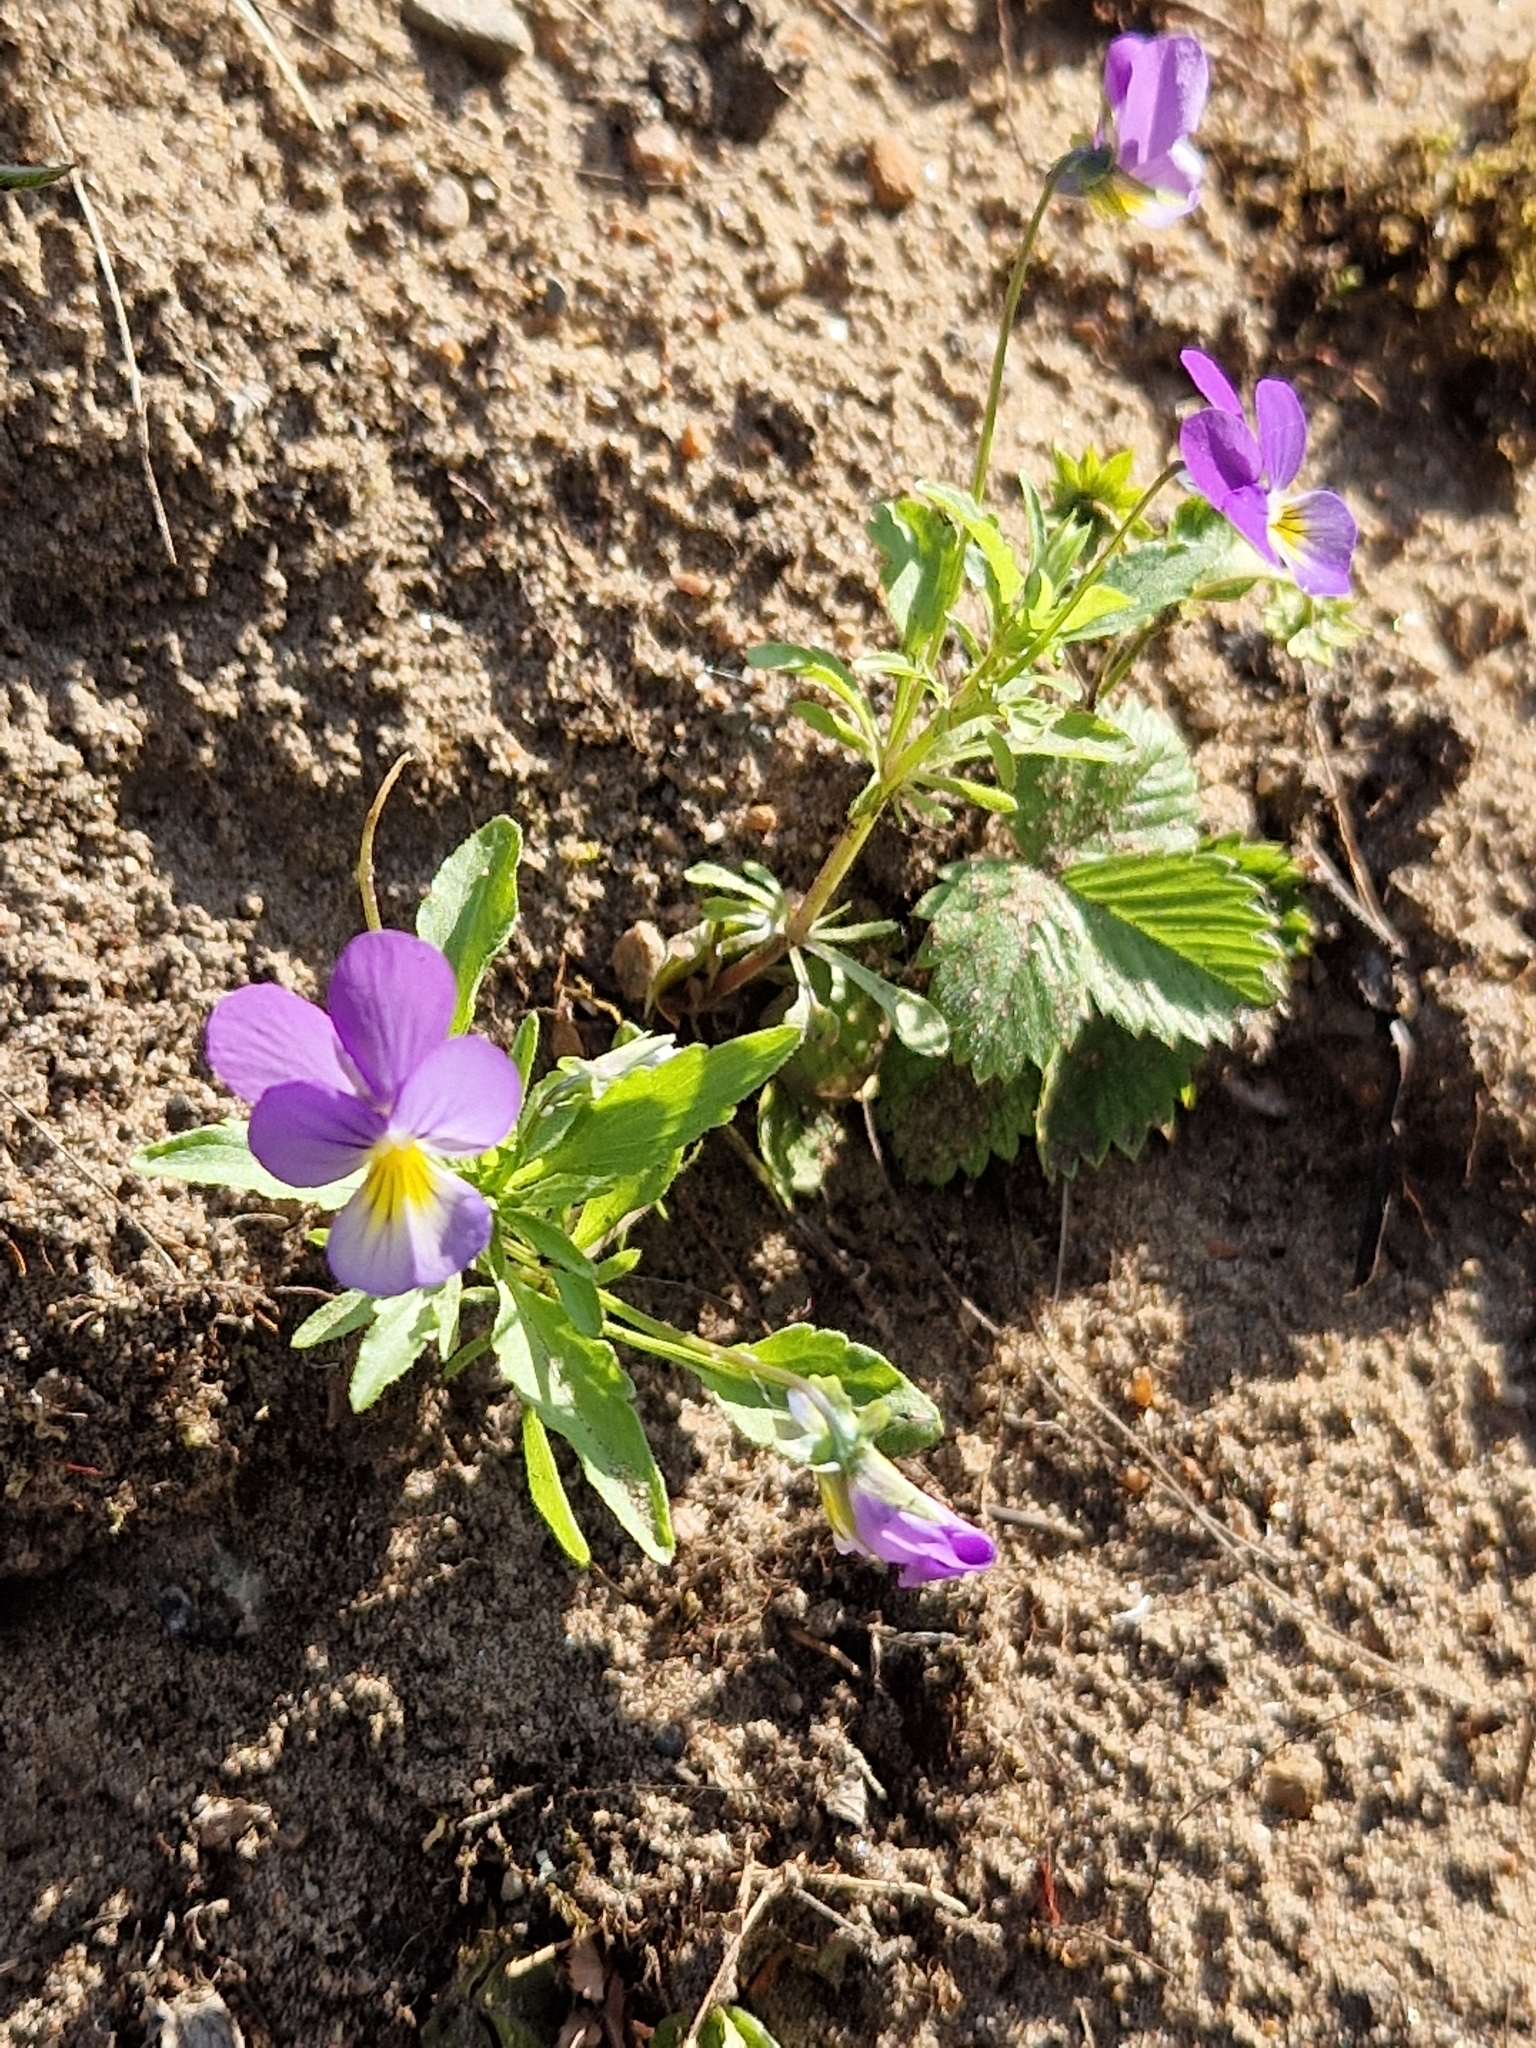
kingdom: Plantae
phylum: Tracheophyta
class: Magnoliopsida
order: Malpighiales
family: Violaceae
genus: Viola
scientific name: Viola tricolor
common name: Pansy
